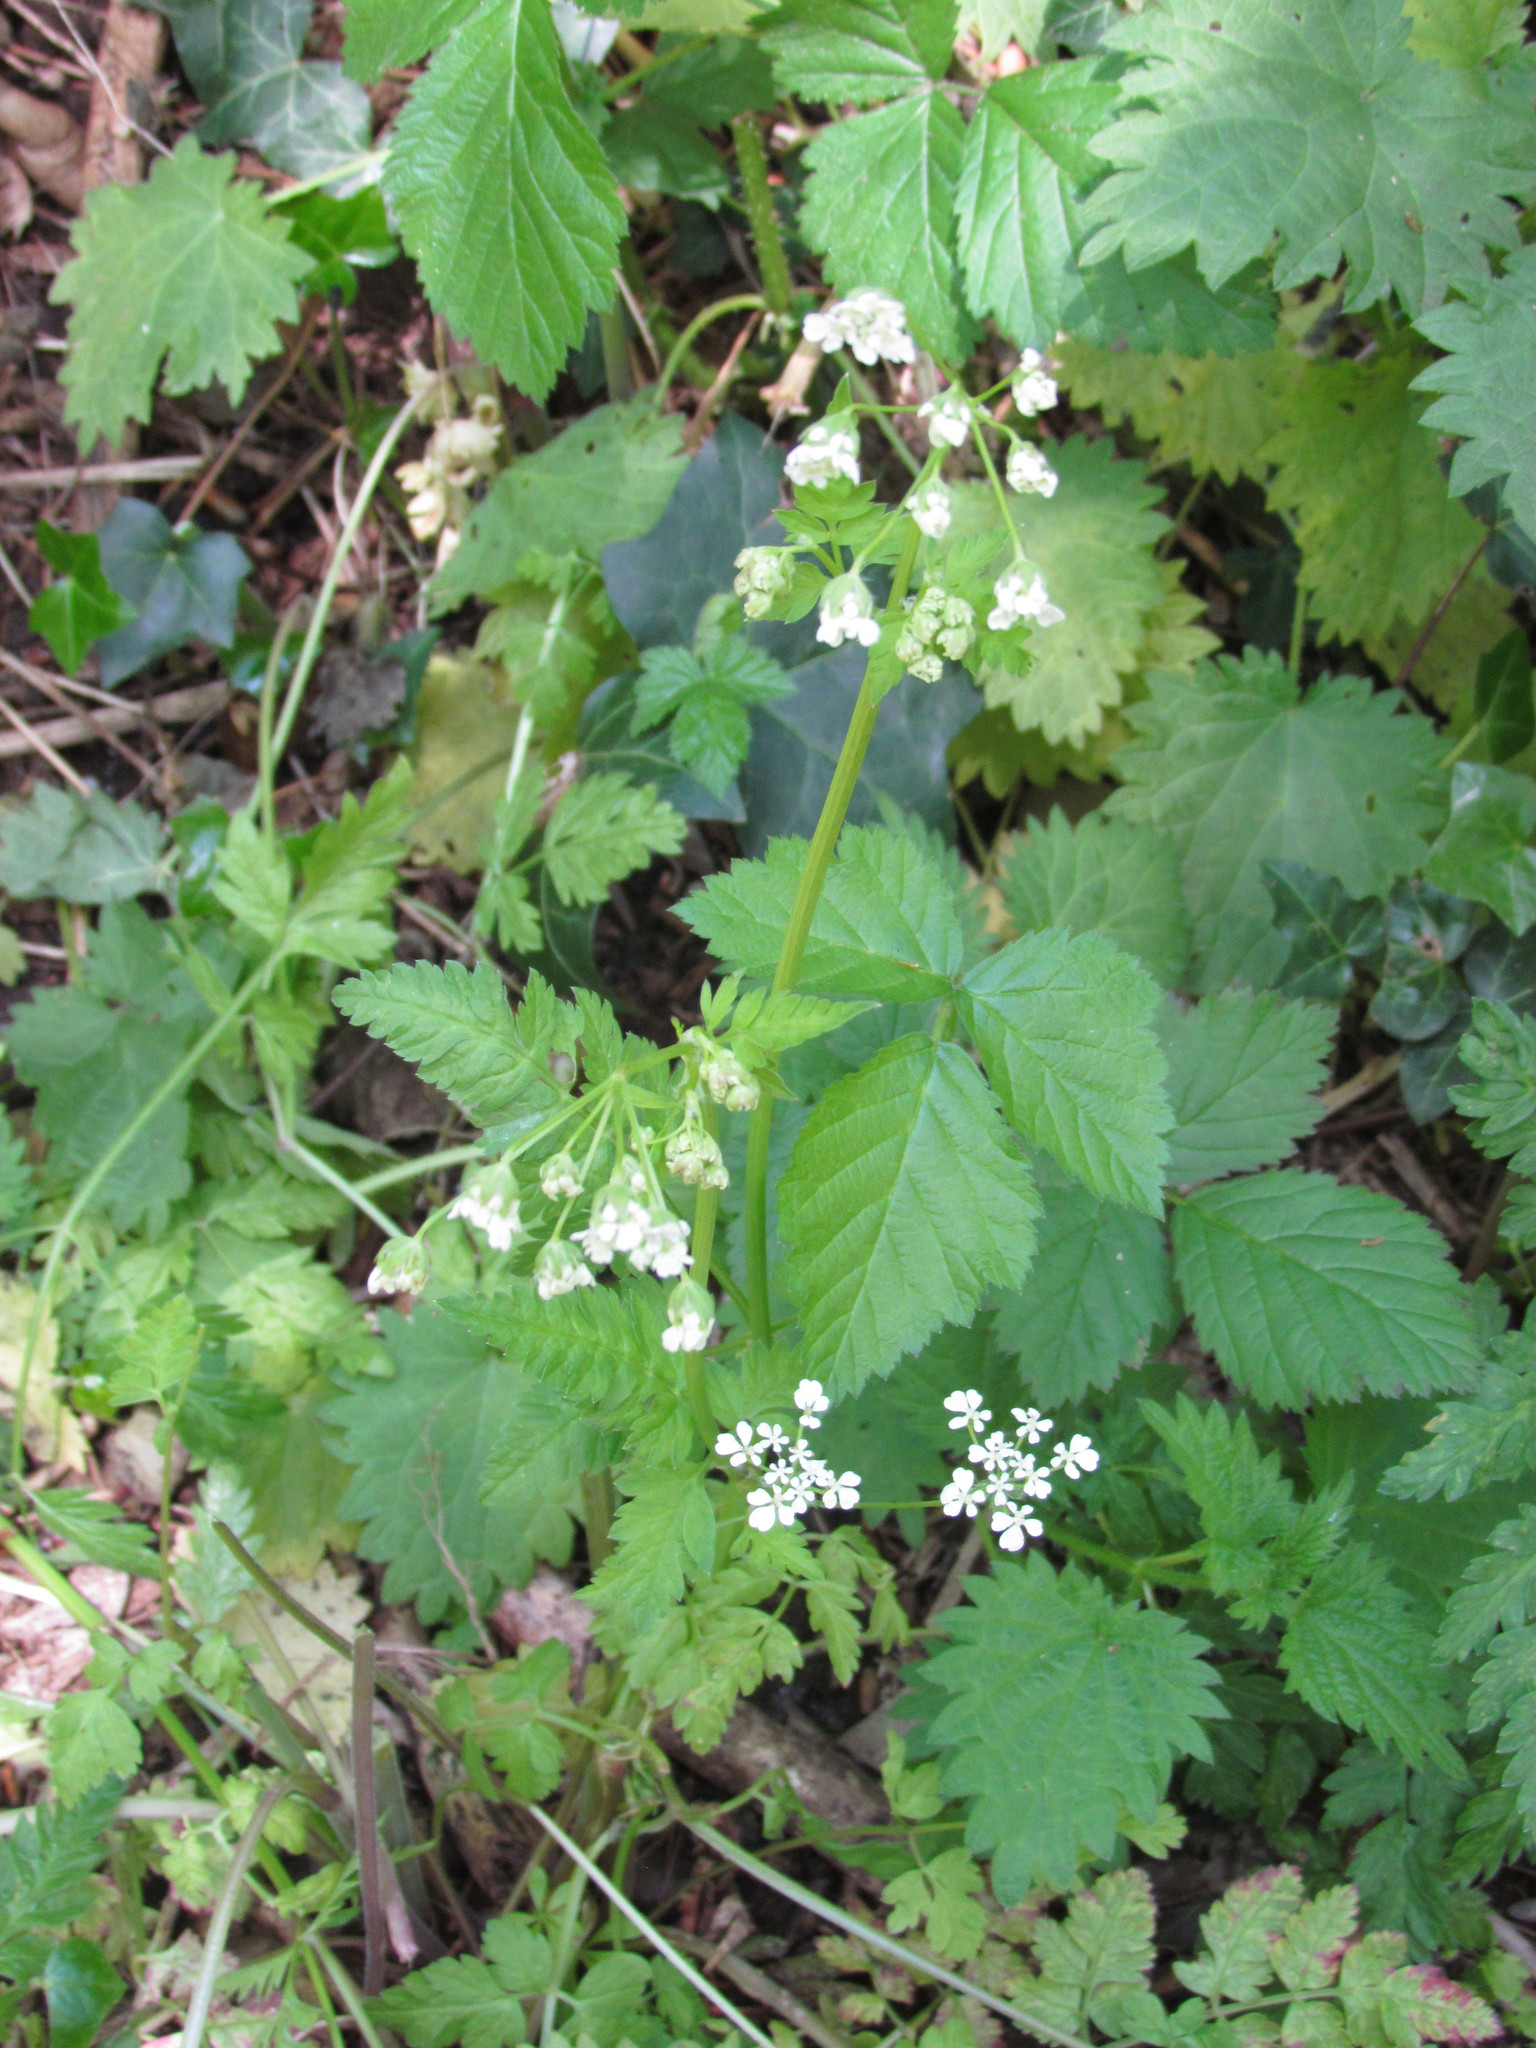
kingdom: Plantae
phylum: Tracheophyta
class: Magnoliopsida
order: Apiales
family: Apiaceae
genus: Anthriscus
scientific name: Anthriscus sylvestris
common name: Cow parsley
